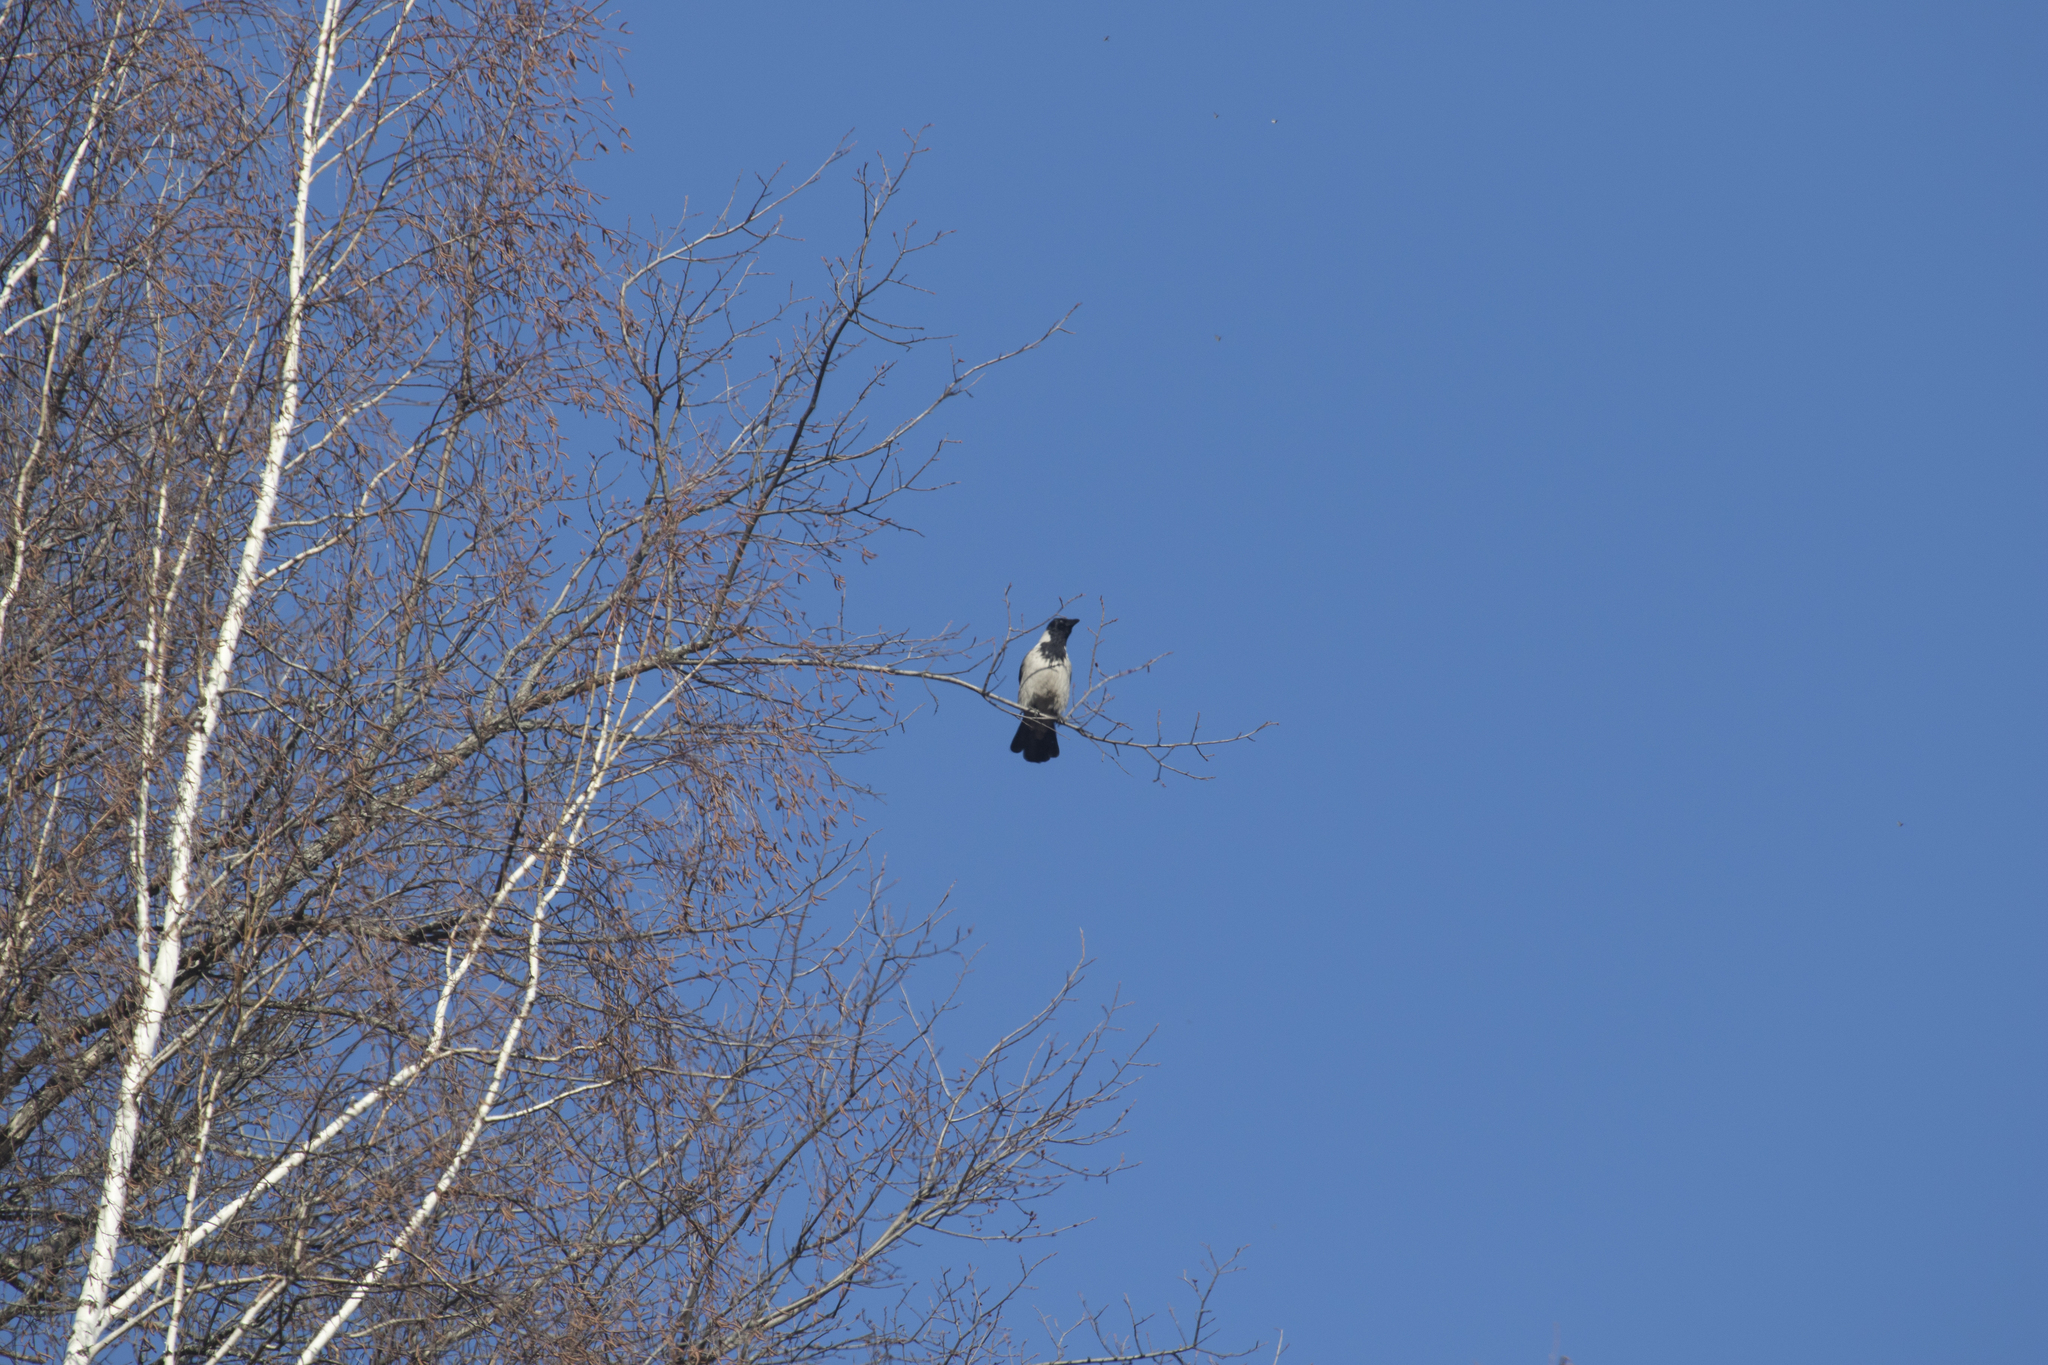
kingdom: Animalia
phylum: Chordata
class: Aves
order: Passeriformes
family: Corvidae
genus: Corvus
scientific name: Corvus cornix
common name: Hooded crow
